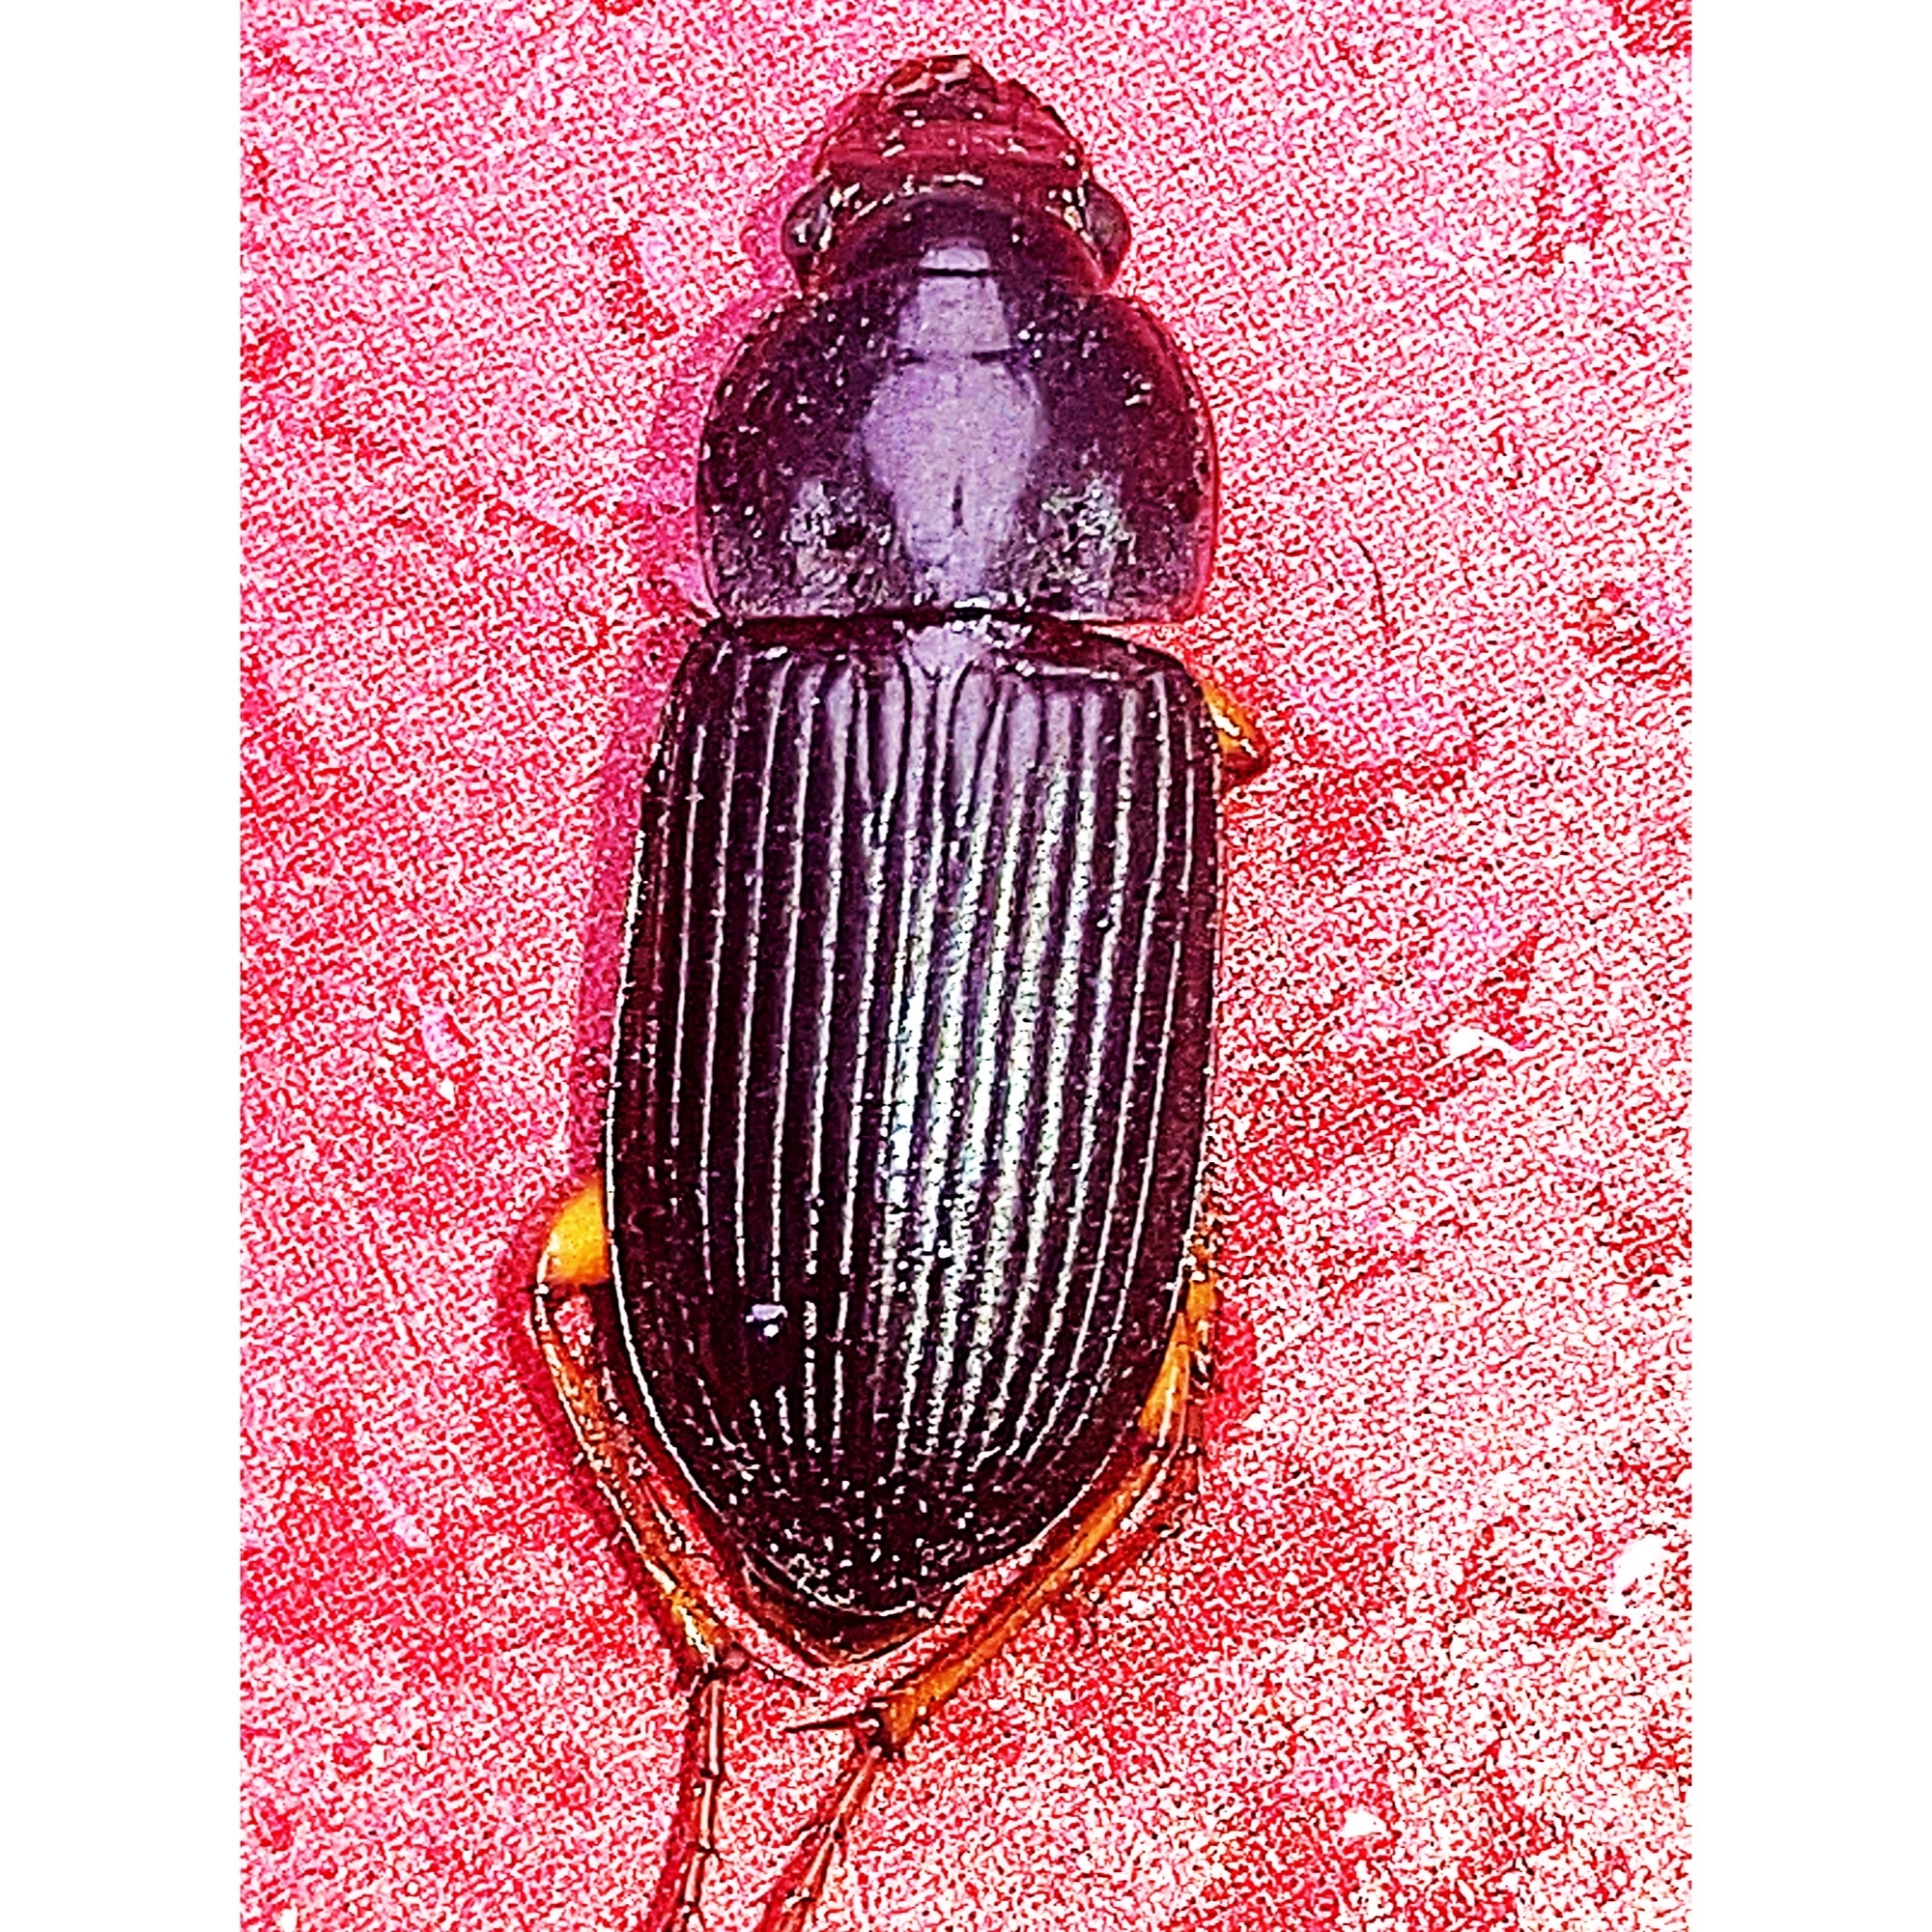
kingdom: Animalia
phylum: Arthropoda
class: Insecta
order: Coleoptera
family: Carabidae
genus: Harpalus
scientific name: Harpalus pensylvanicus
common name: Pennsylvania dingy ground beetle
